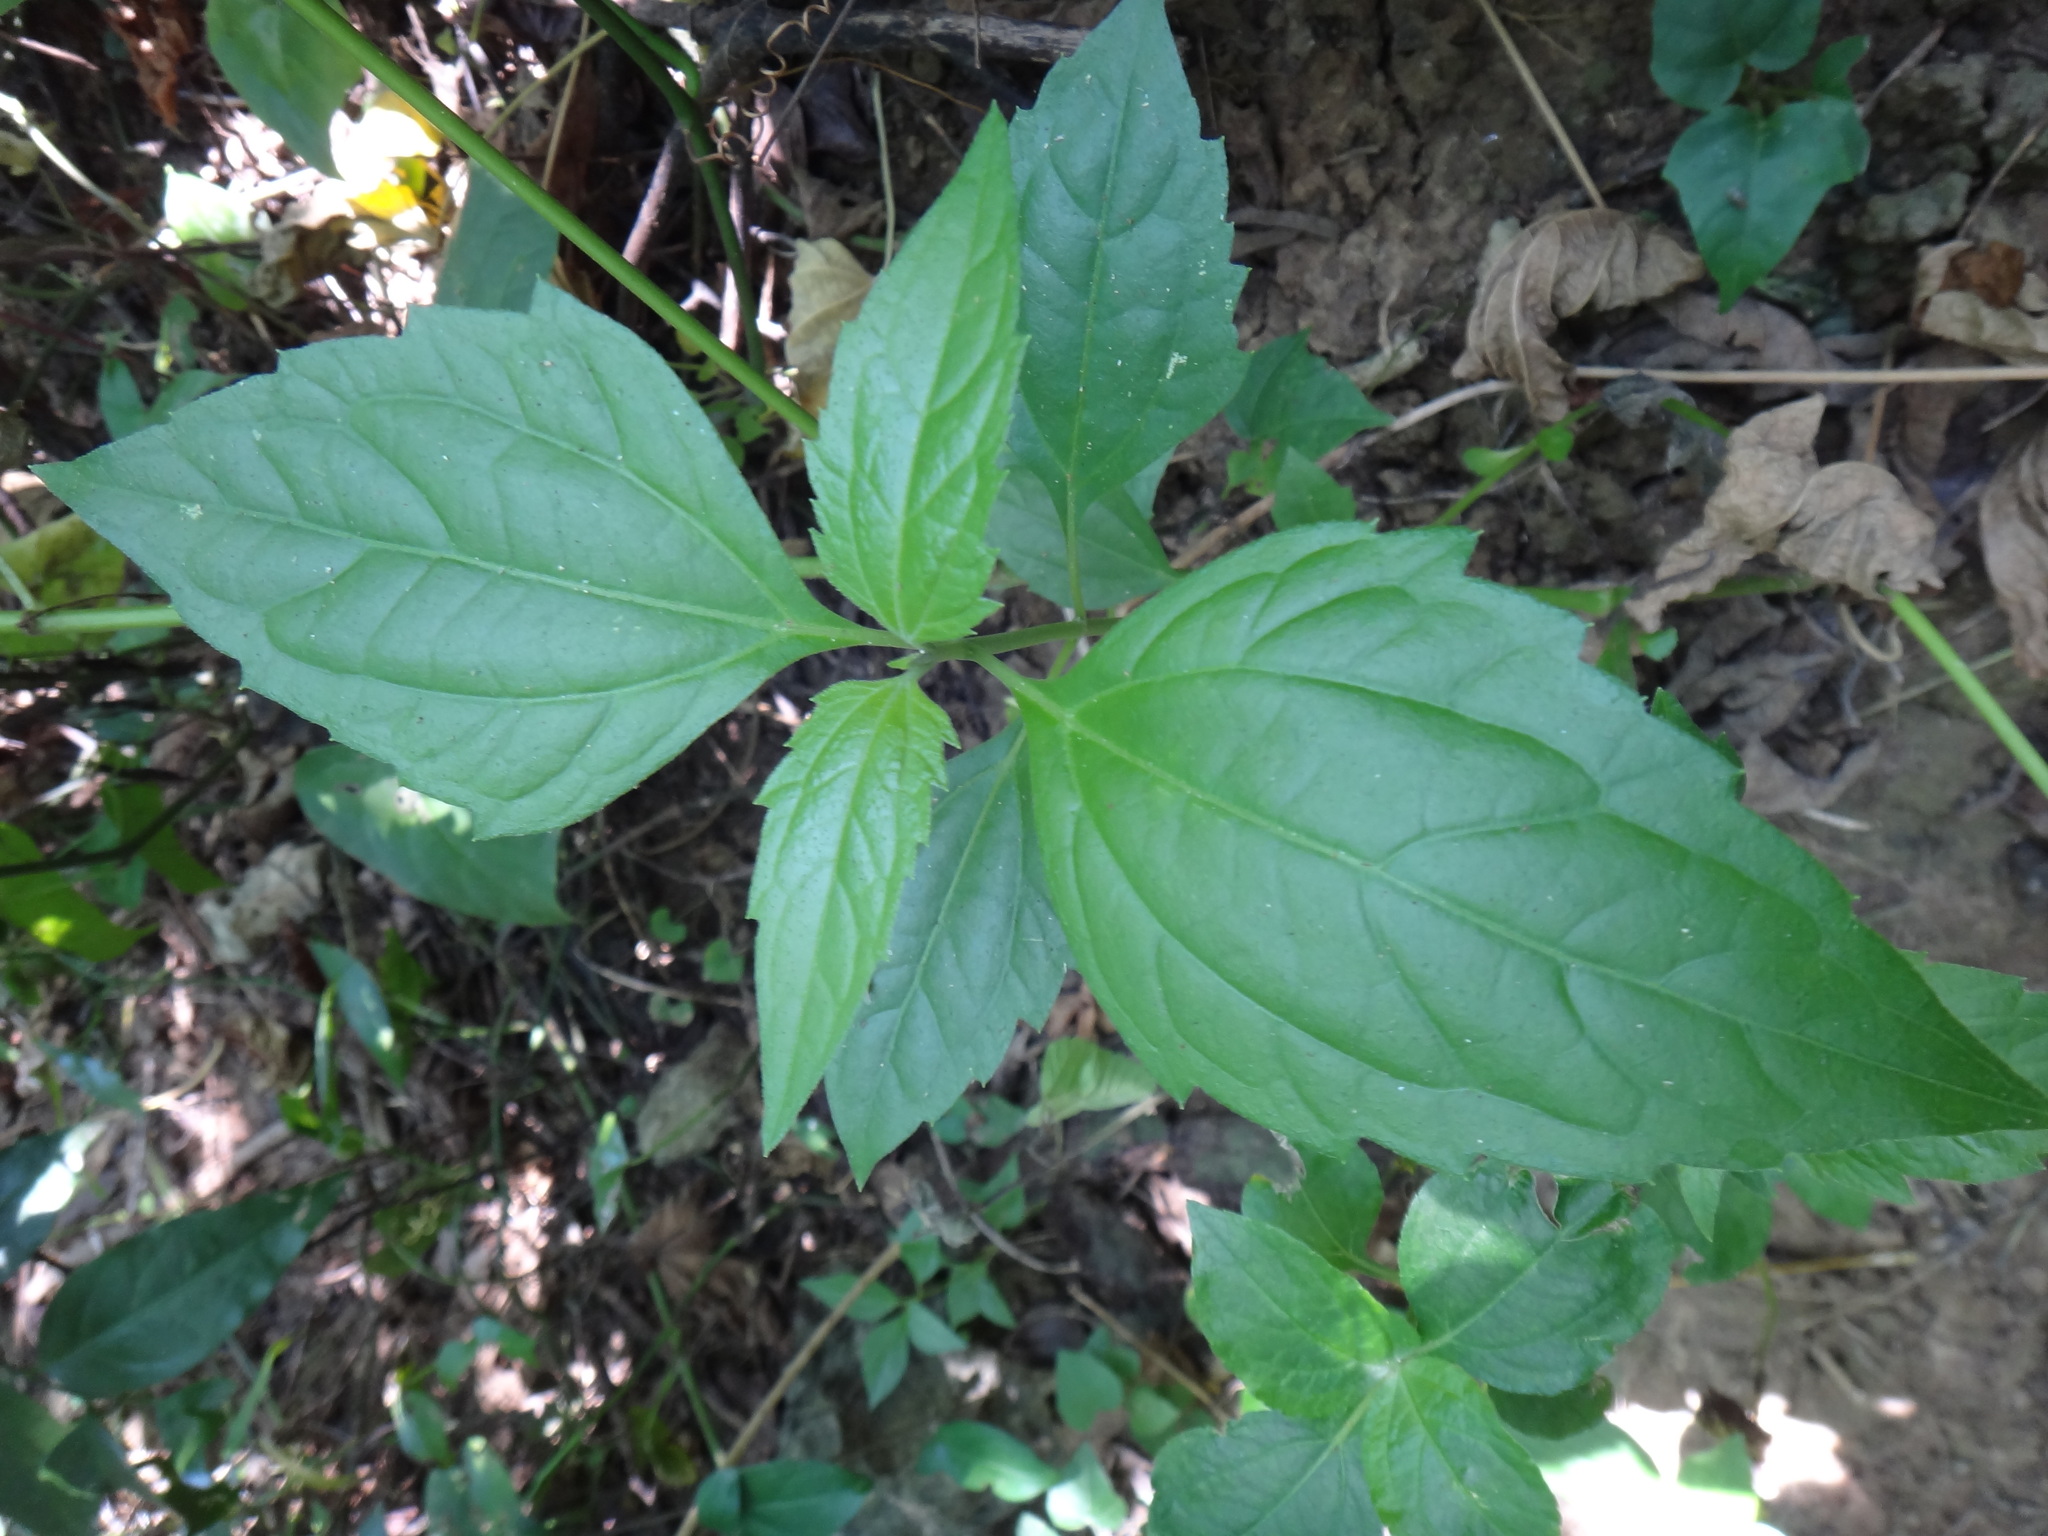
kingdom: Plantae
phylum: Tracheophyta
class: Magnoliopsida
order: Asterales
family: Asteraceae
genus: Chromolaena
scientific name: Chromolaena odorata
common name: Siamweed
